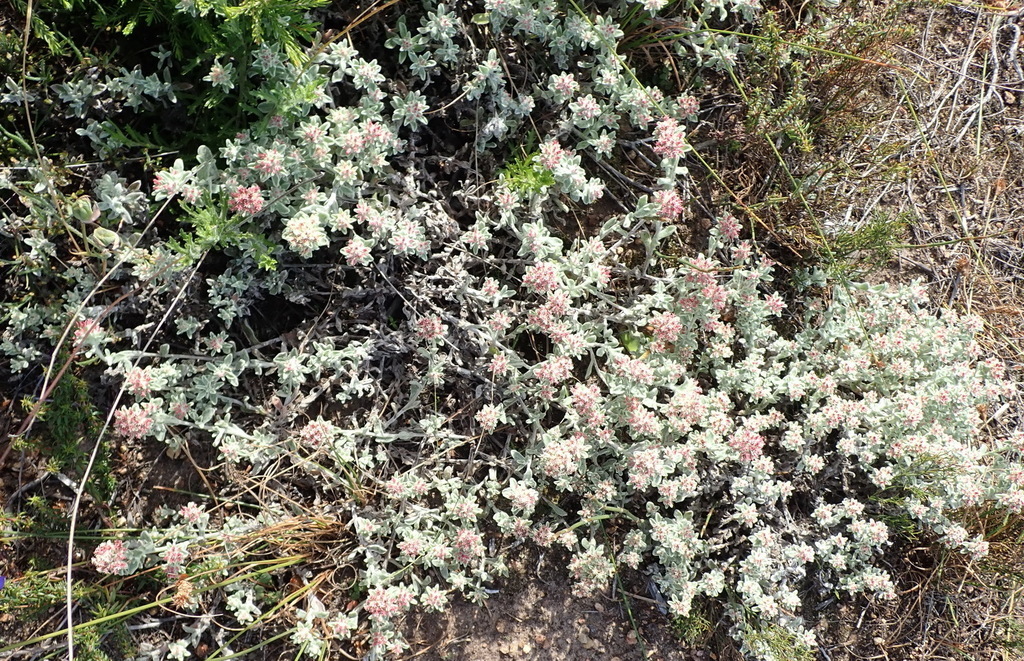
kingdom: Plantae
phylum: Tracheophyta
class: Magnoliopsida
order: Asterales
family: Asteraceae
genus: Helichrysum
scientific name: Helichrysum spiralepis
